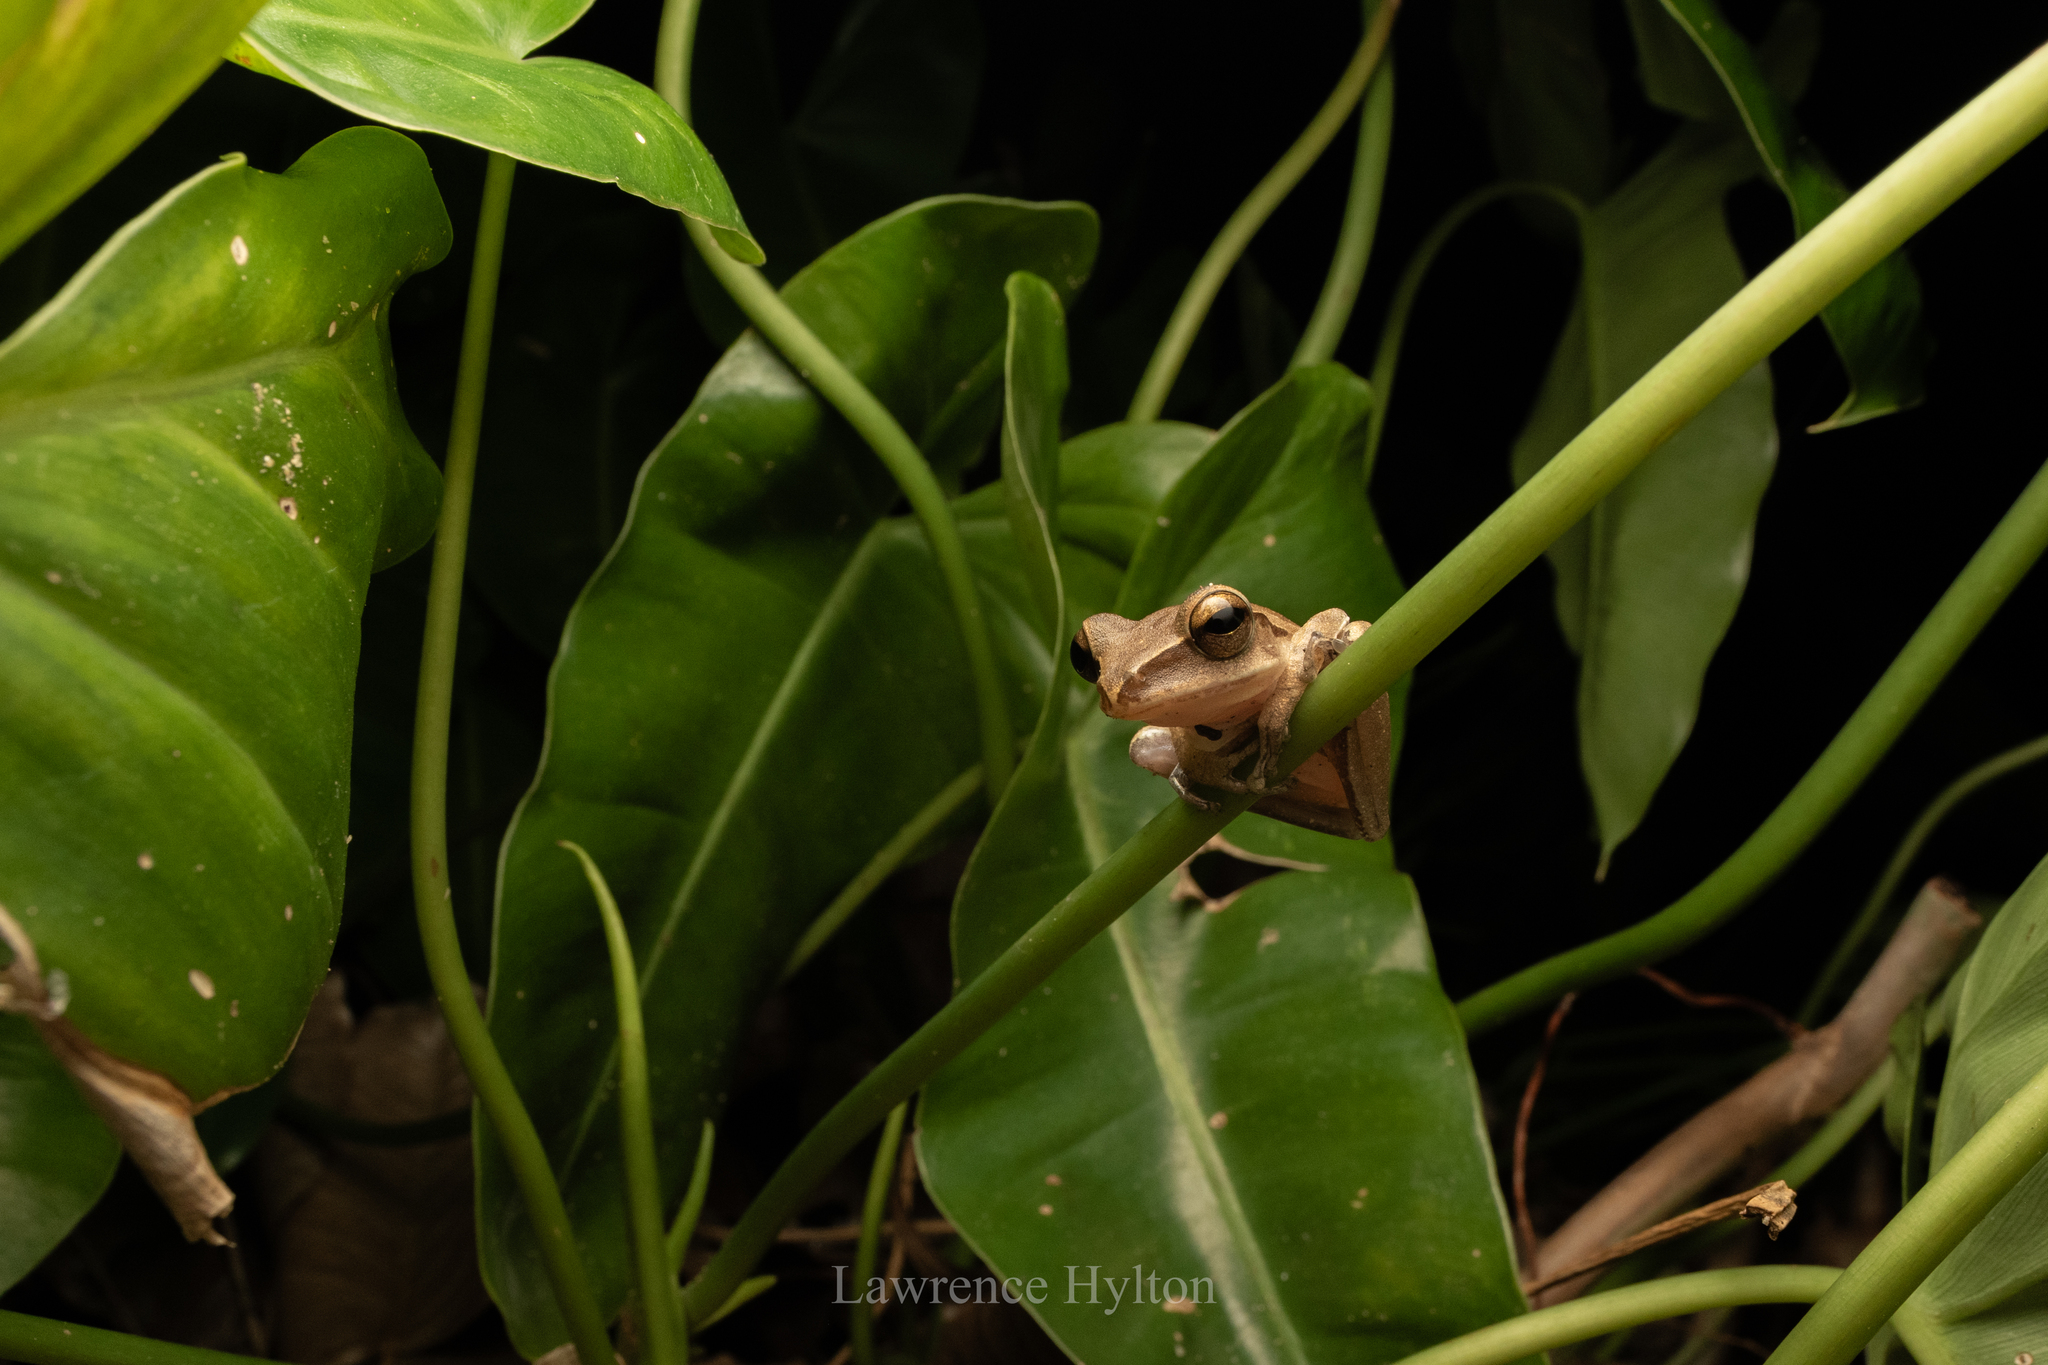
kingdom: Animalia
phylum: Chordata
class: Amphibia
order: Anura
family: Rhacophoridae
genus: Polypedates
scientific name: Polypedates megacephalus
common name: Hong kong whipping frog
